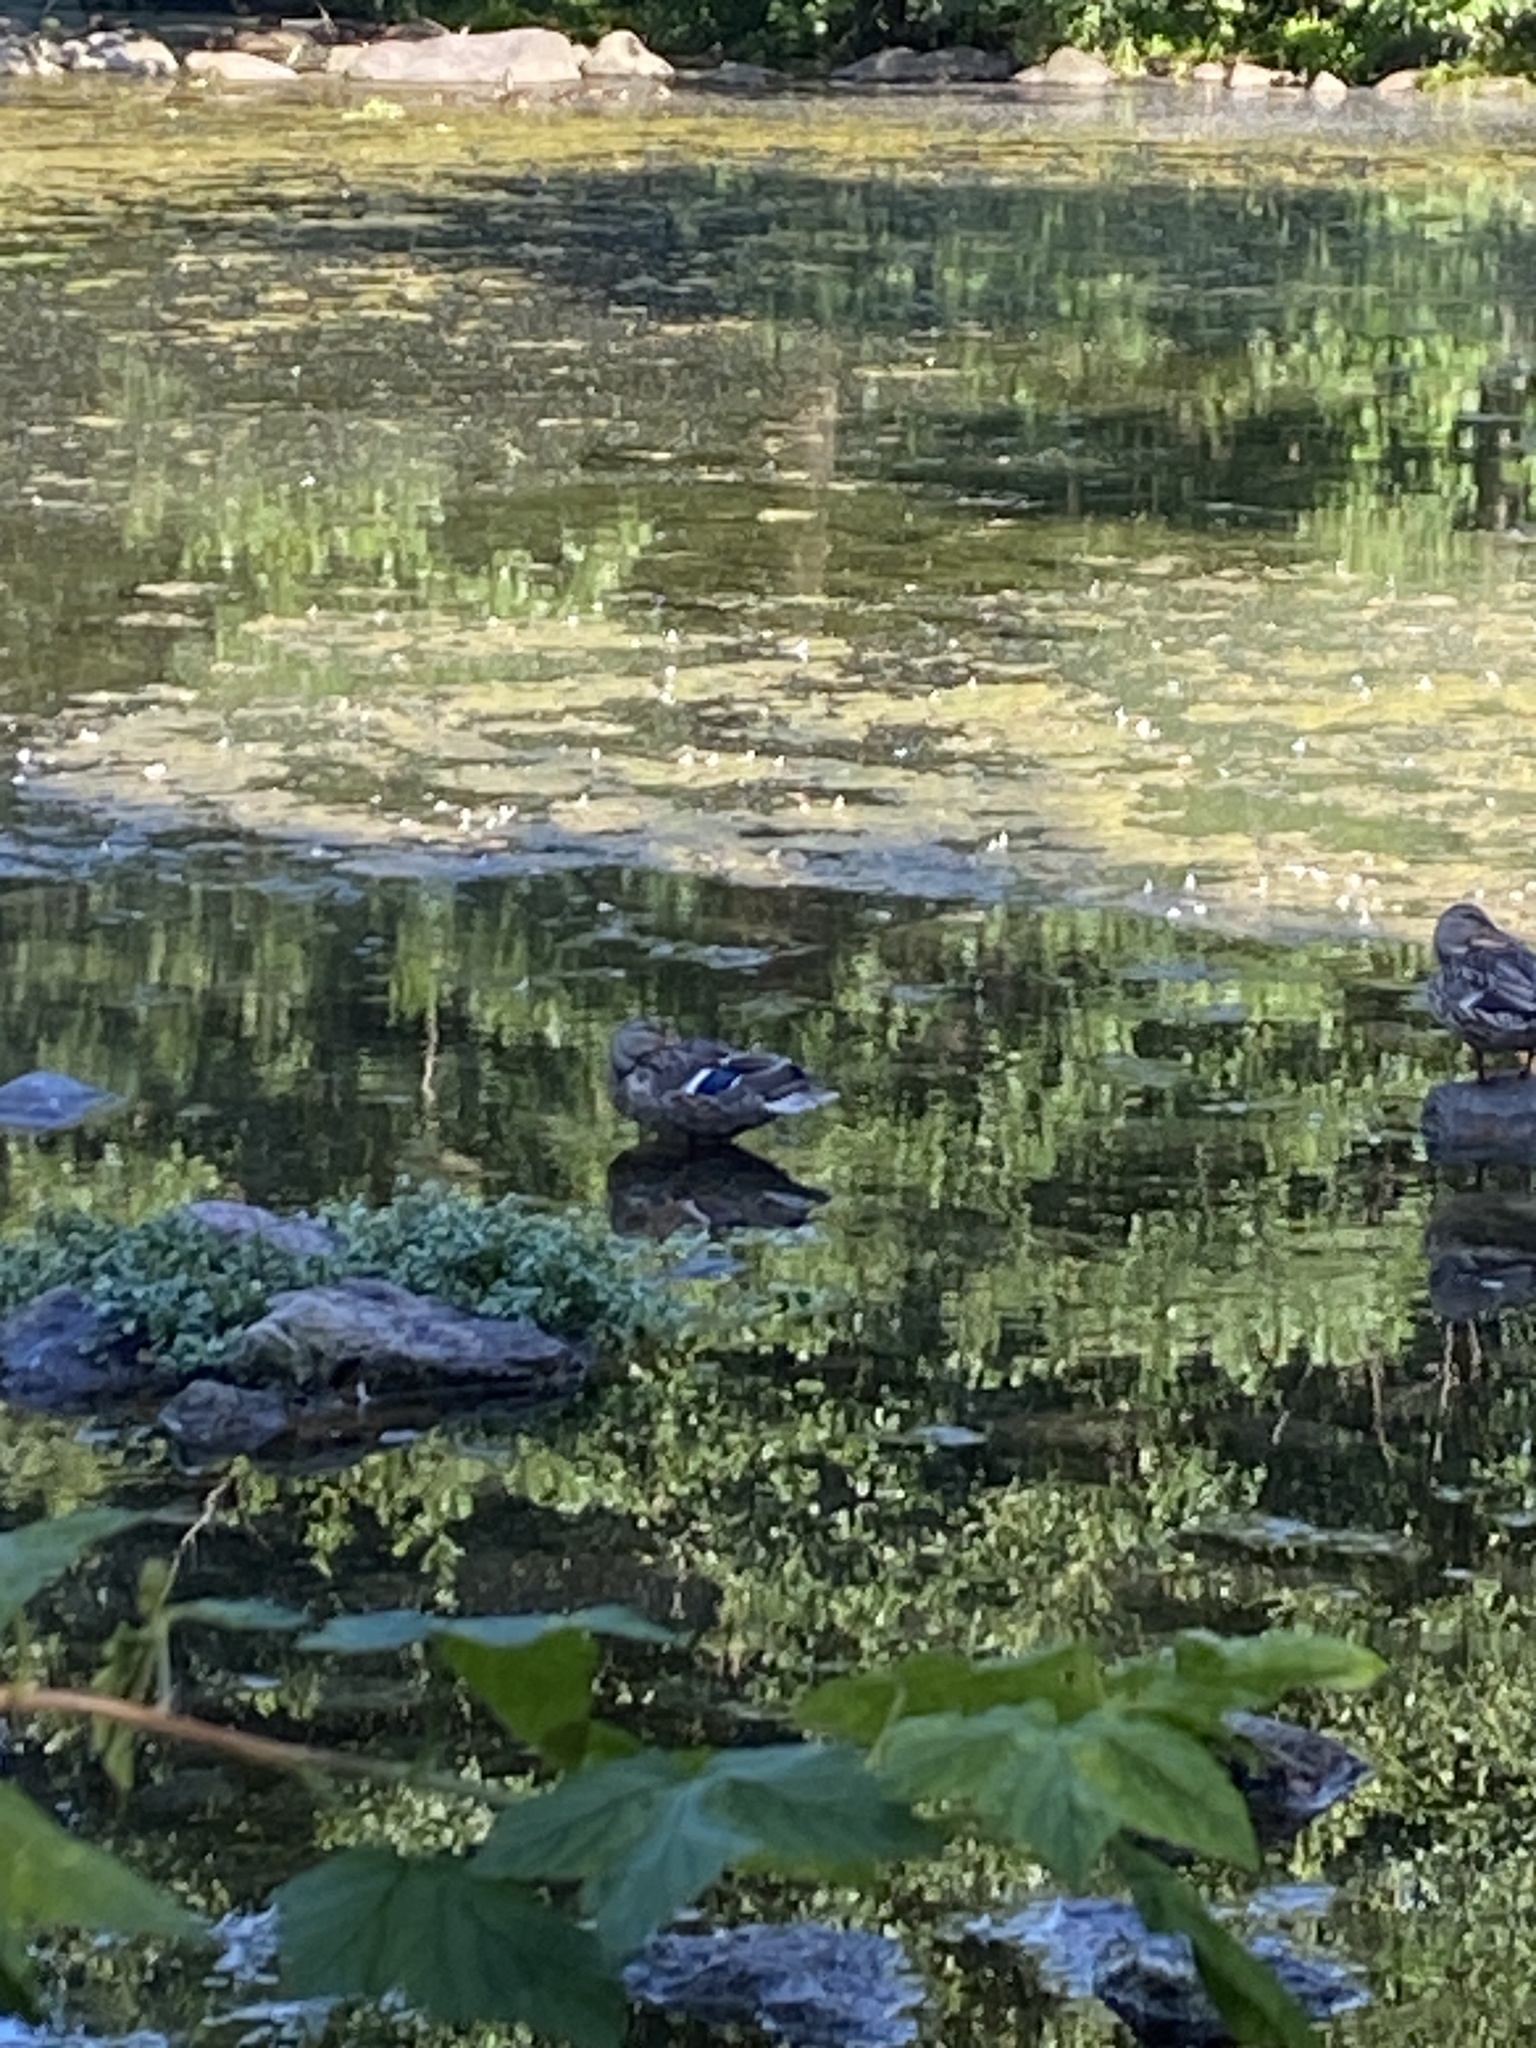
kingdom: Animalia
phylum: Chordata
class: Aves
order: Anseriformes
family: Anatidae
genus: Anas
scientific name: Anas platyrhynchos
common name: Mallard
